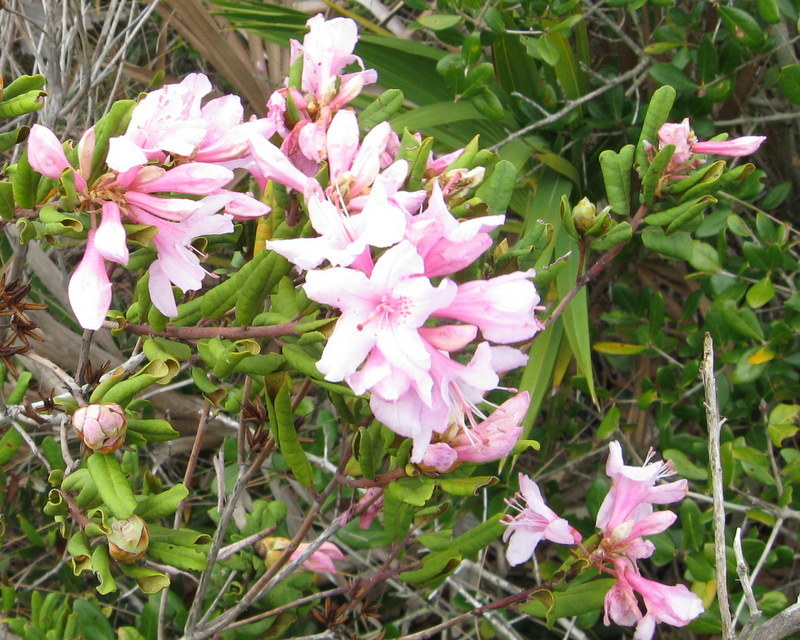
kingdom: Plantae
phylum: Tracheophyta
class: Magnoliopsida
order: Ericales
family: Ericaceae
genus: Rhododendron
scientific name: Rhododendron minus
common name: Piedmont rhododendron
